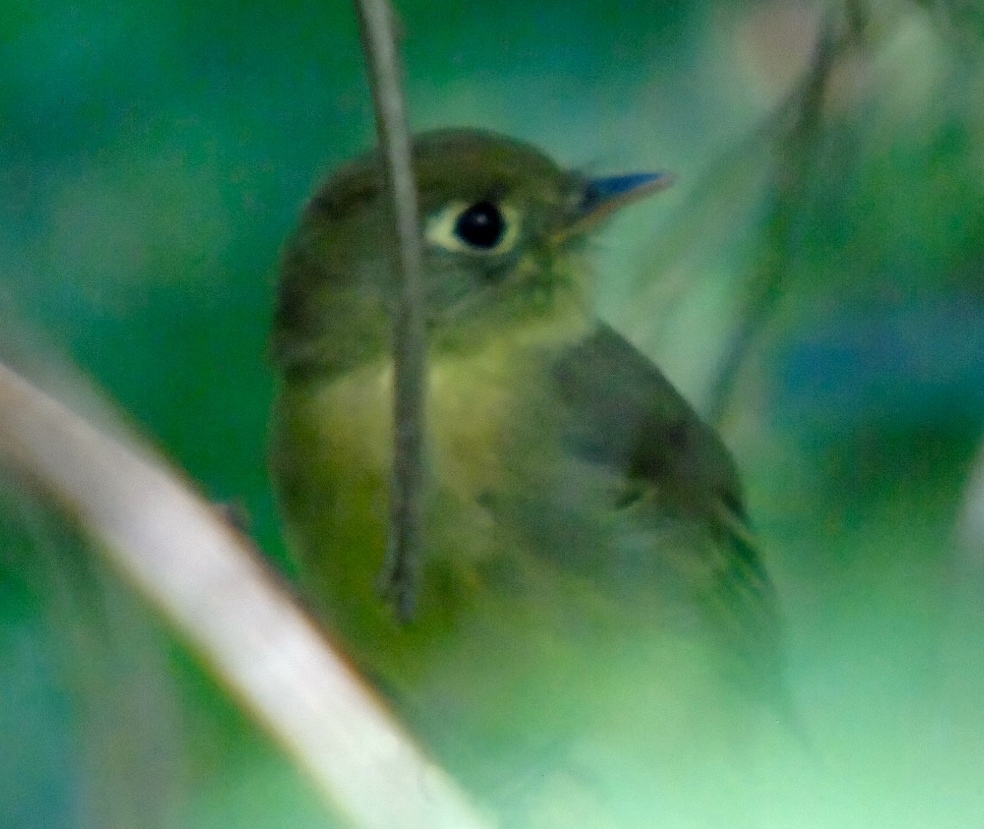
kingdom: Animalia
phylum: Chordata
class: Aves
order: Passeriformes
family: Tyrannidae
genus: Empidonax
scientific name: Empidonax difficilis
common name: Pacific-slope flycatcher
